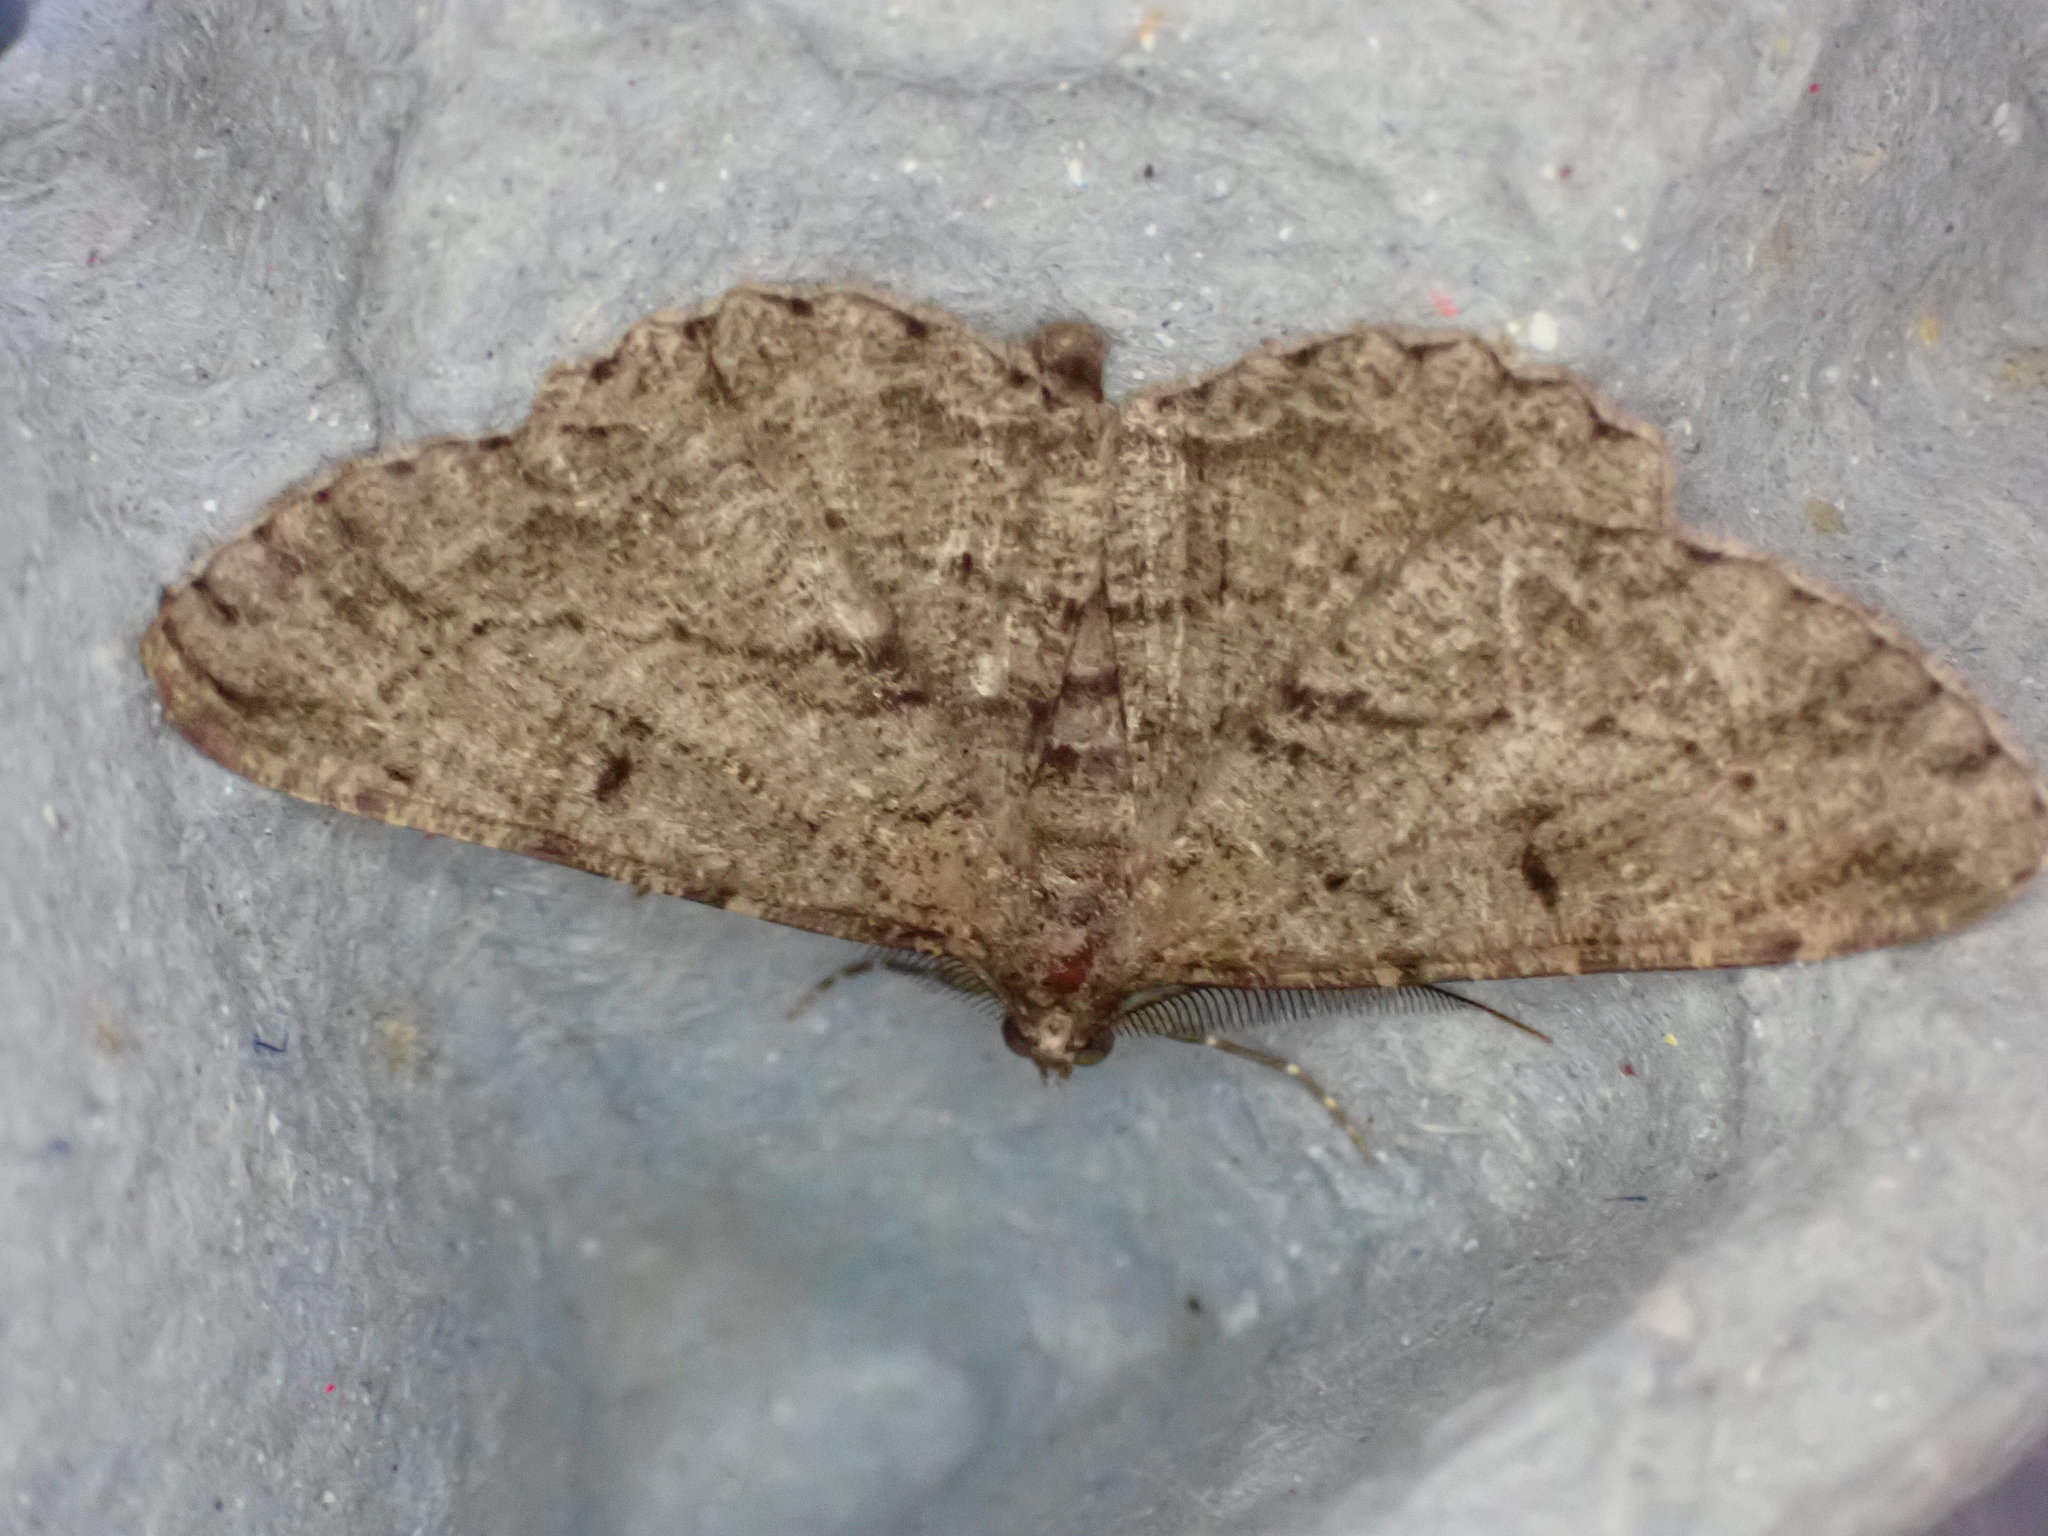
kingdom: Animalia
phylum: Arthropoda
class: Insecta
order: Lepidoptera
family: Geometridae
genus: Peribatodes
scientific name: Peribatodes rhomboidaria
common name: Willow beauty
